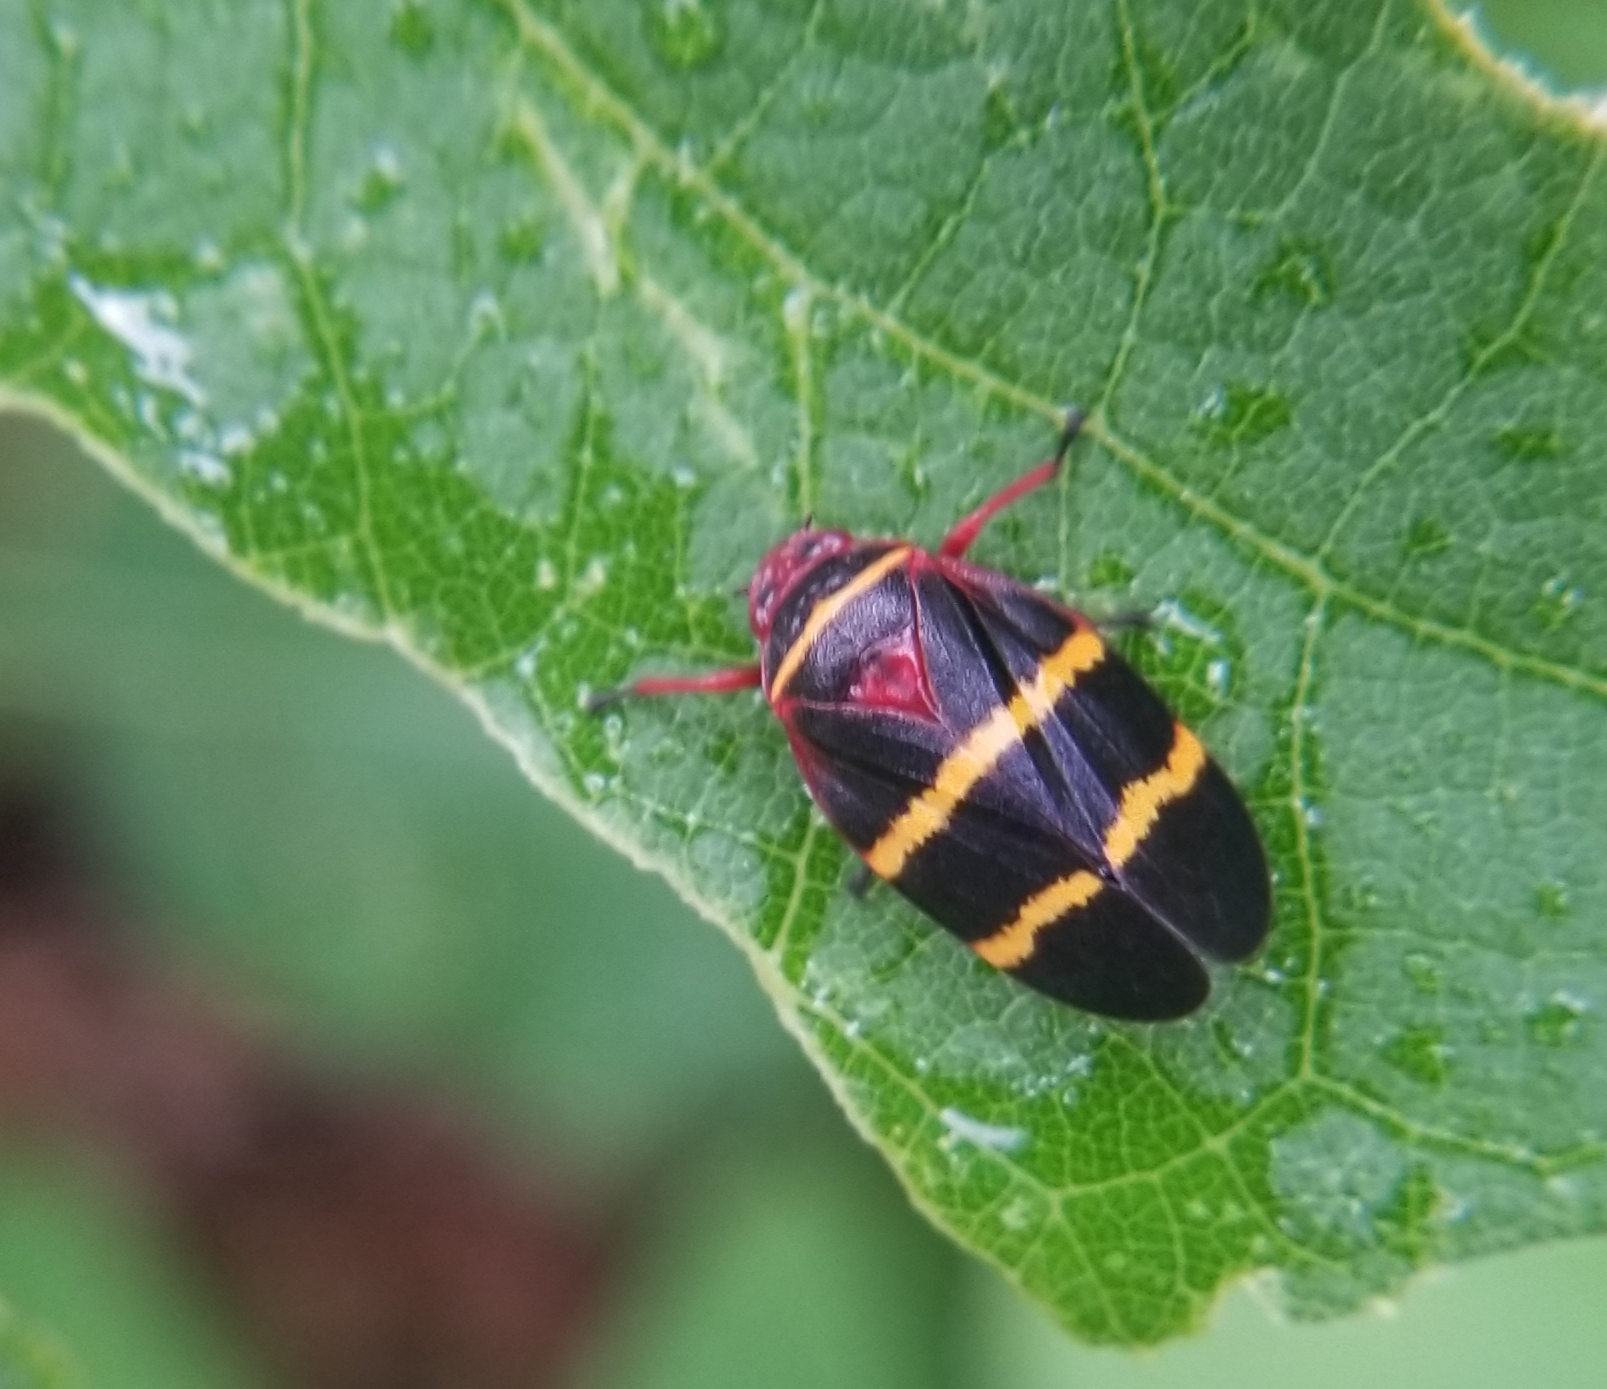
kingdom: Animalia
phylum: Arthropoda
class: Insecta
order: Hemiptera
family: Cercopidae
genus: Prosapia
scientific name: Prosapia bicincta
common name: Twolined spittlebug
